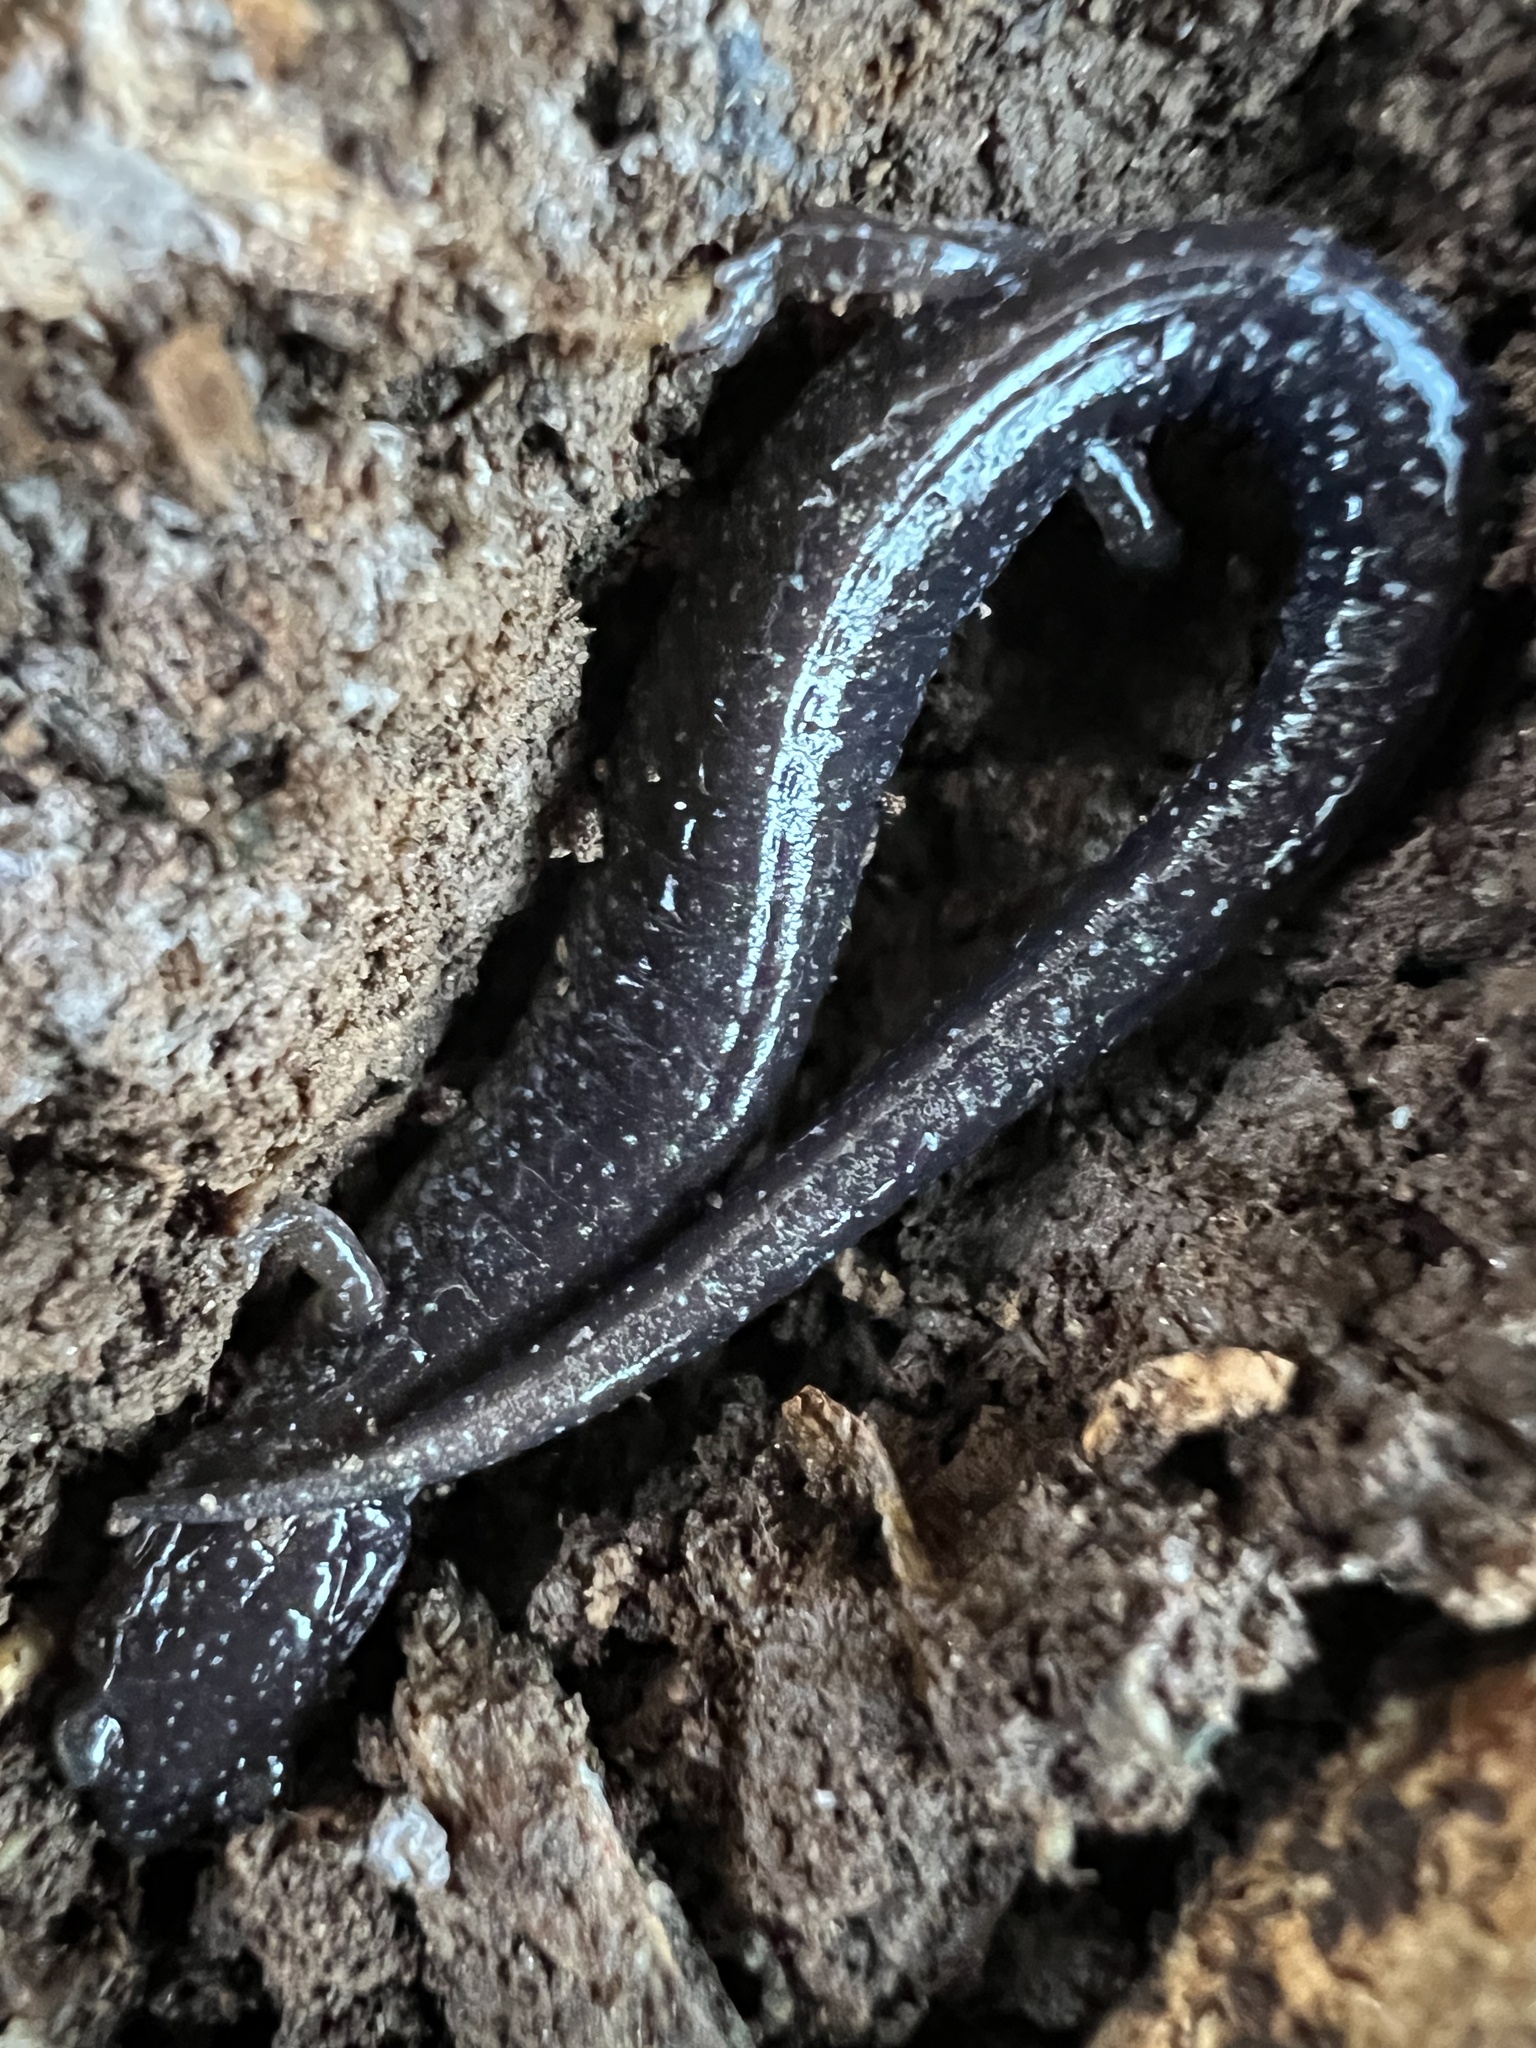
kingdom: Animalia
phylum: Chordata
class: Amphibia
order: Caudata
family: Plethodontidae
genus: Plethodon
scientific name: Plethodon cinereus
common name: Redback salamander
